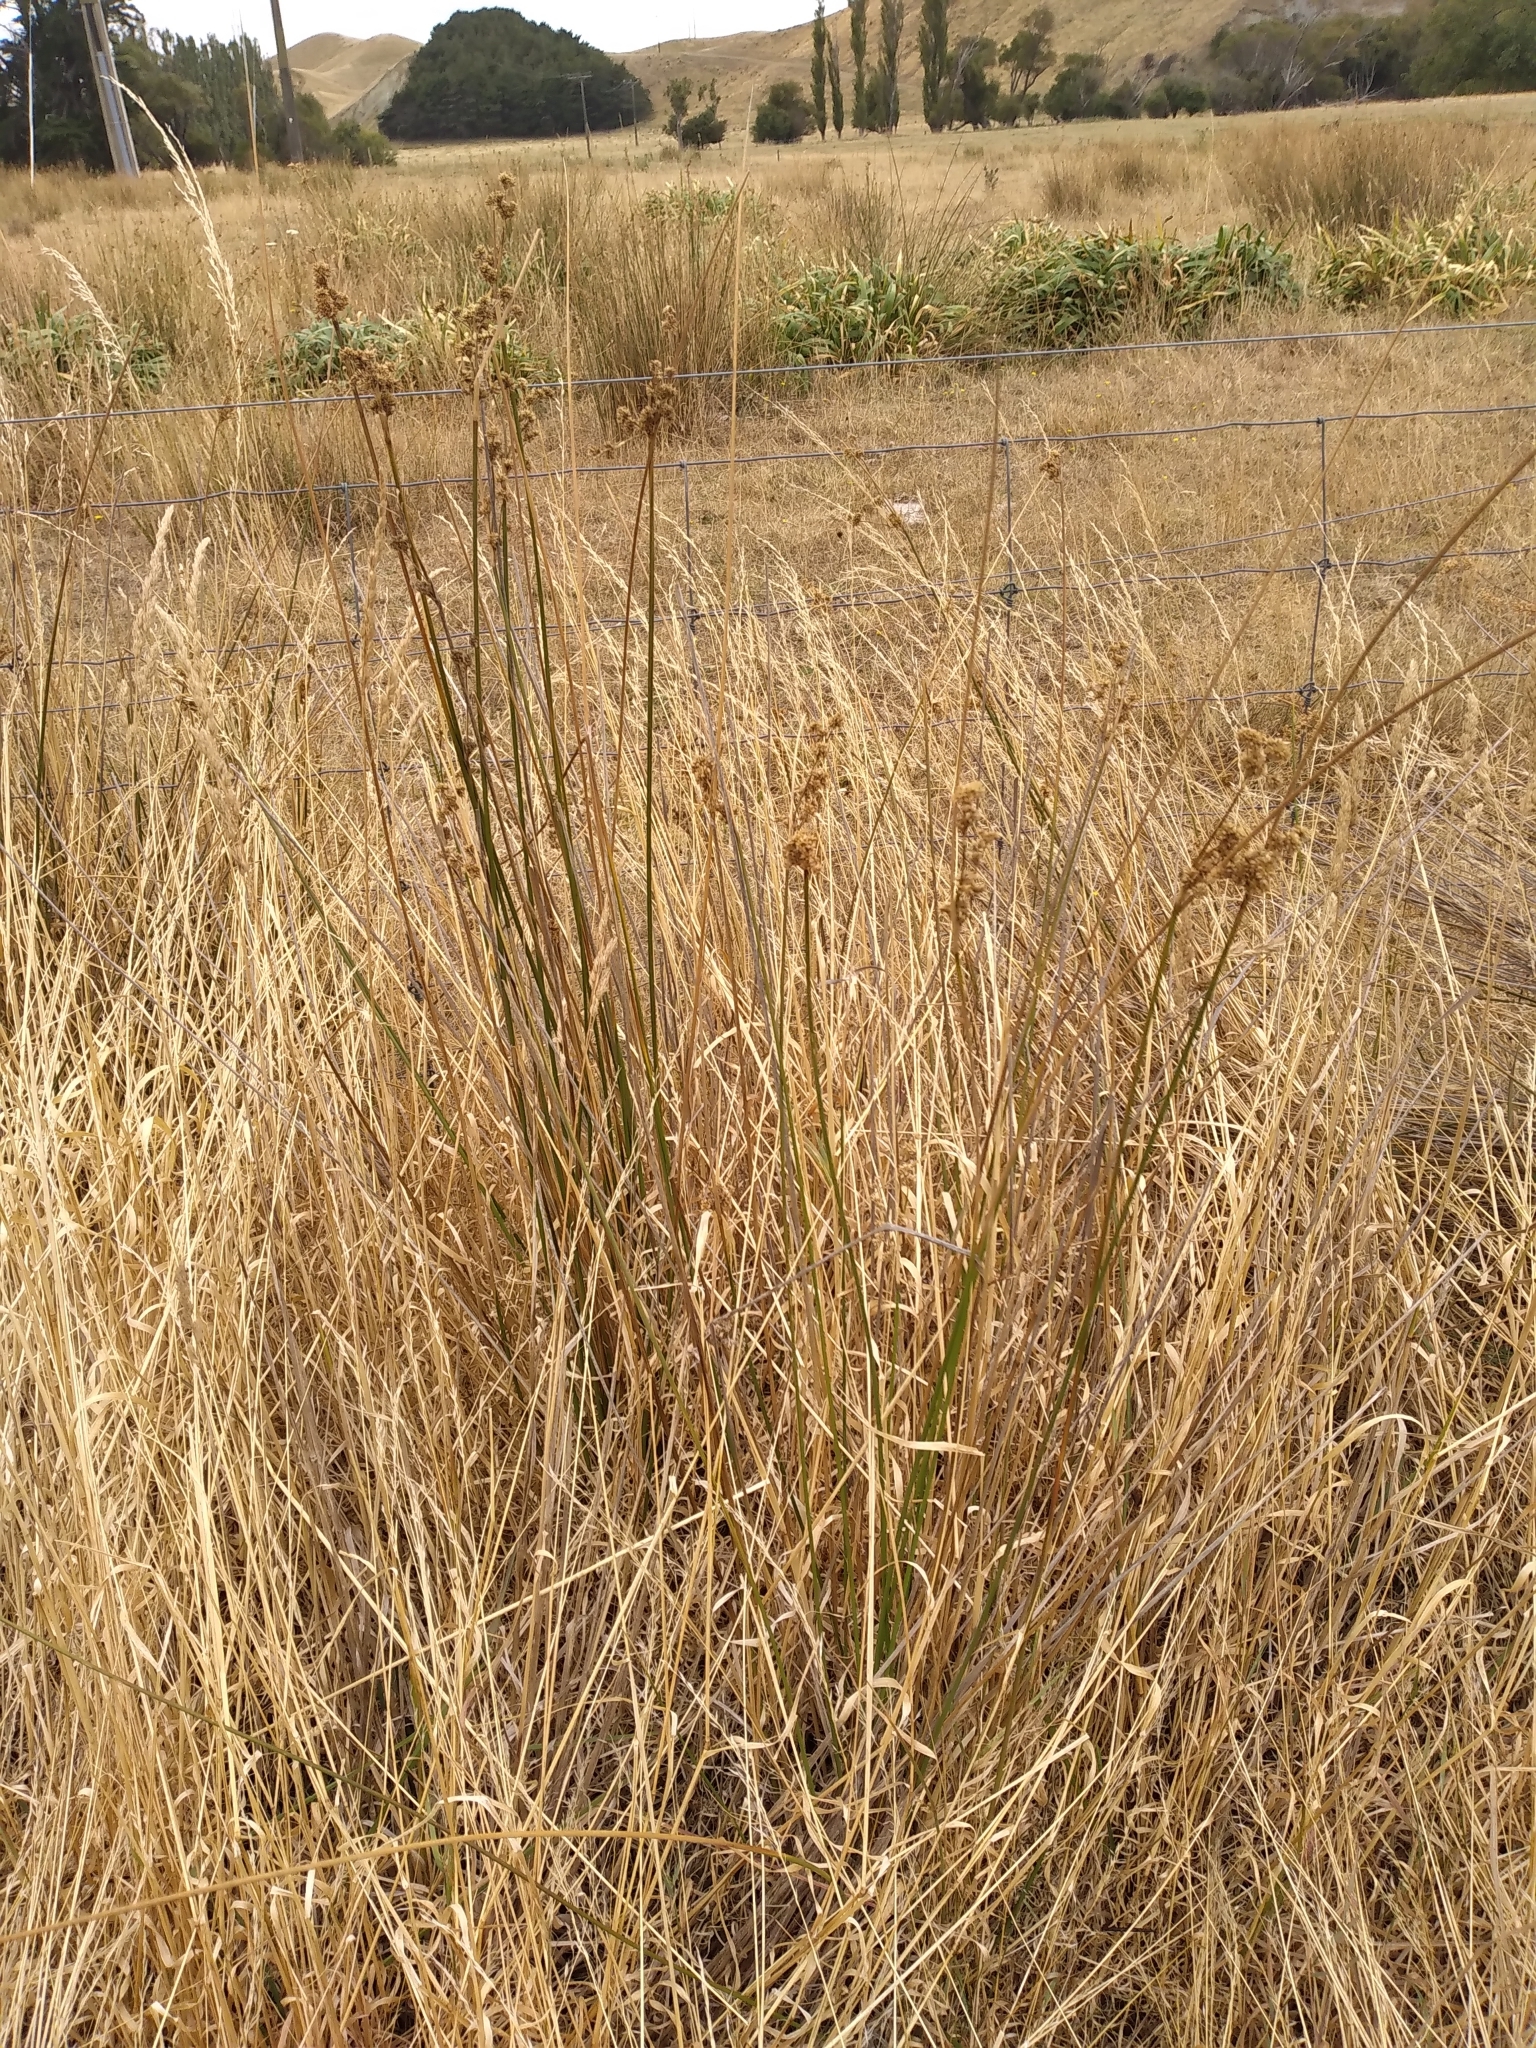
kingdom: Plantae
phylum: Tracheophyta
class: Liliopsida
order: Poales
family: Juncaceae
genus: Juncus
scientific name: Juncus australis
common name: Austral rush
